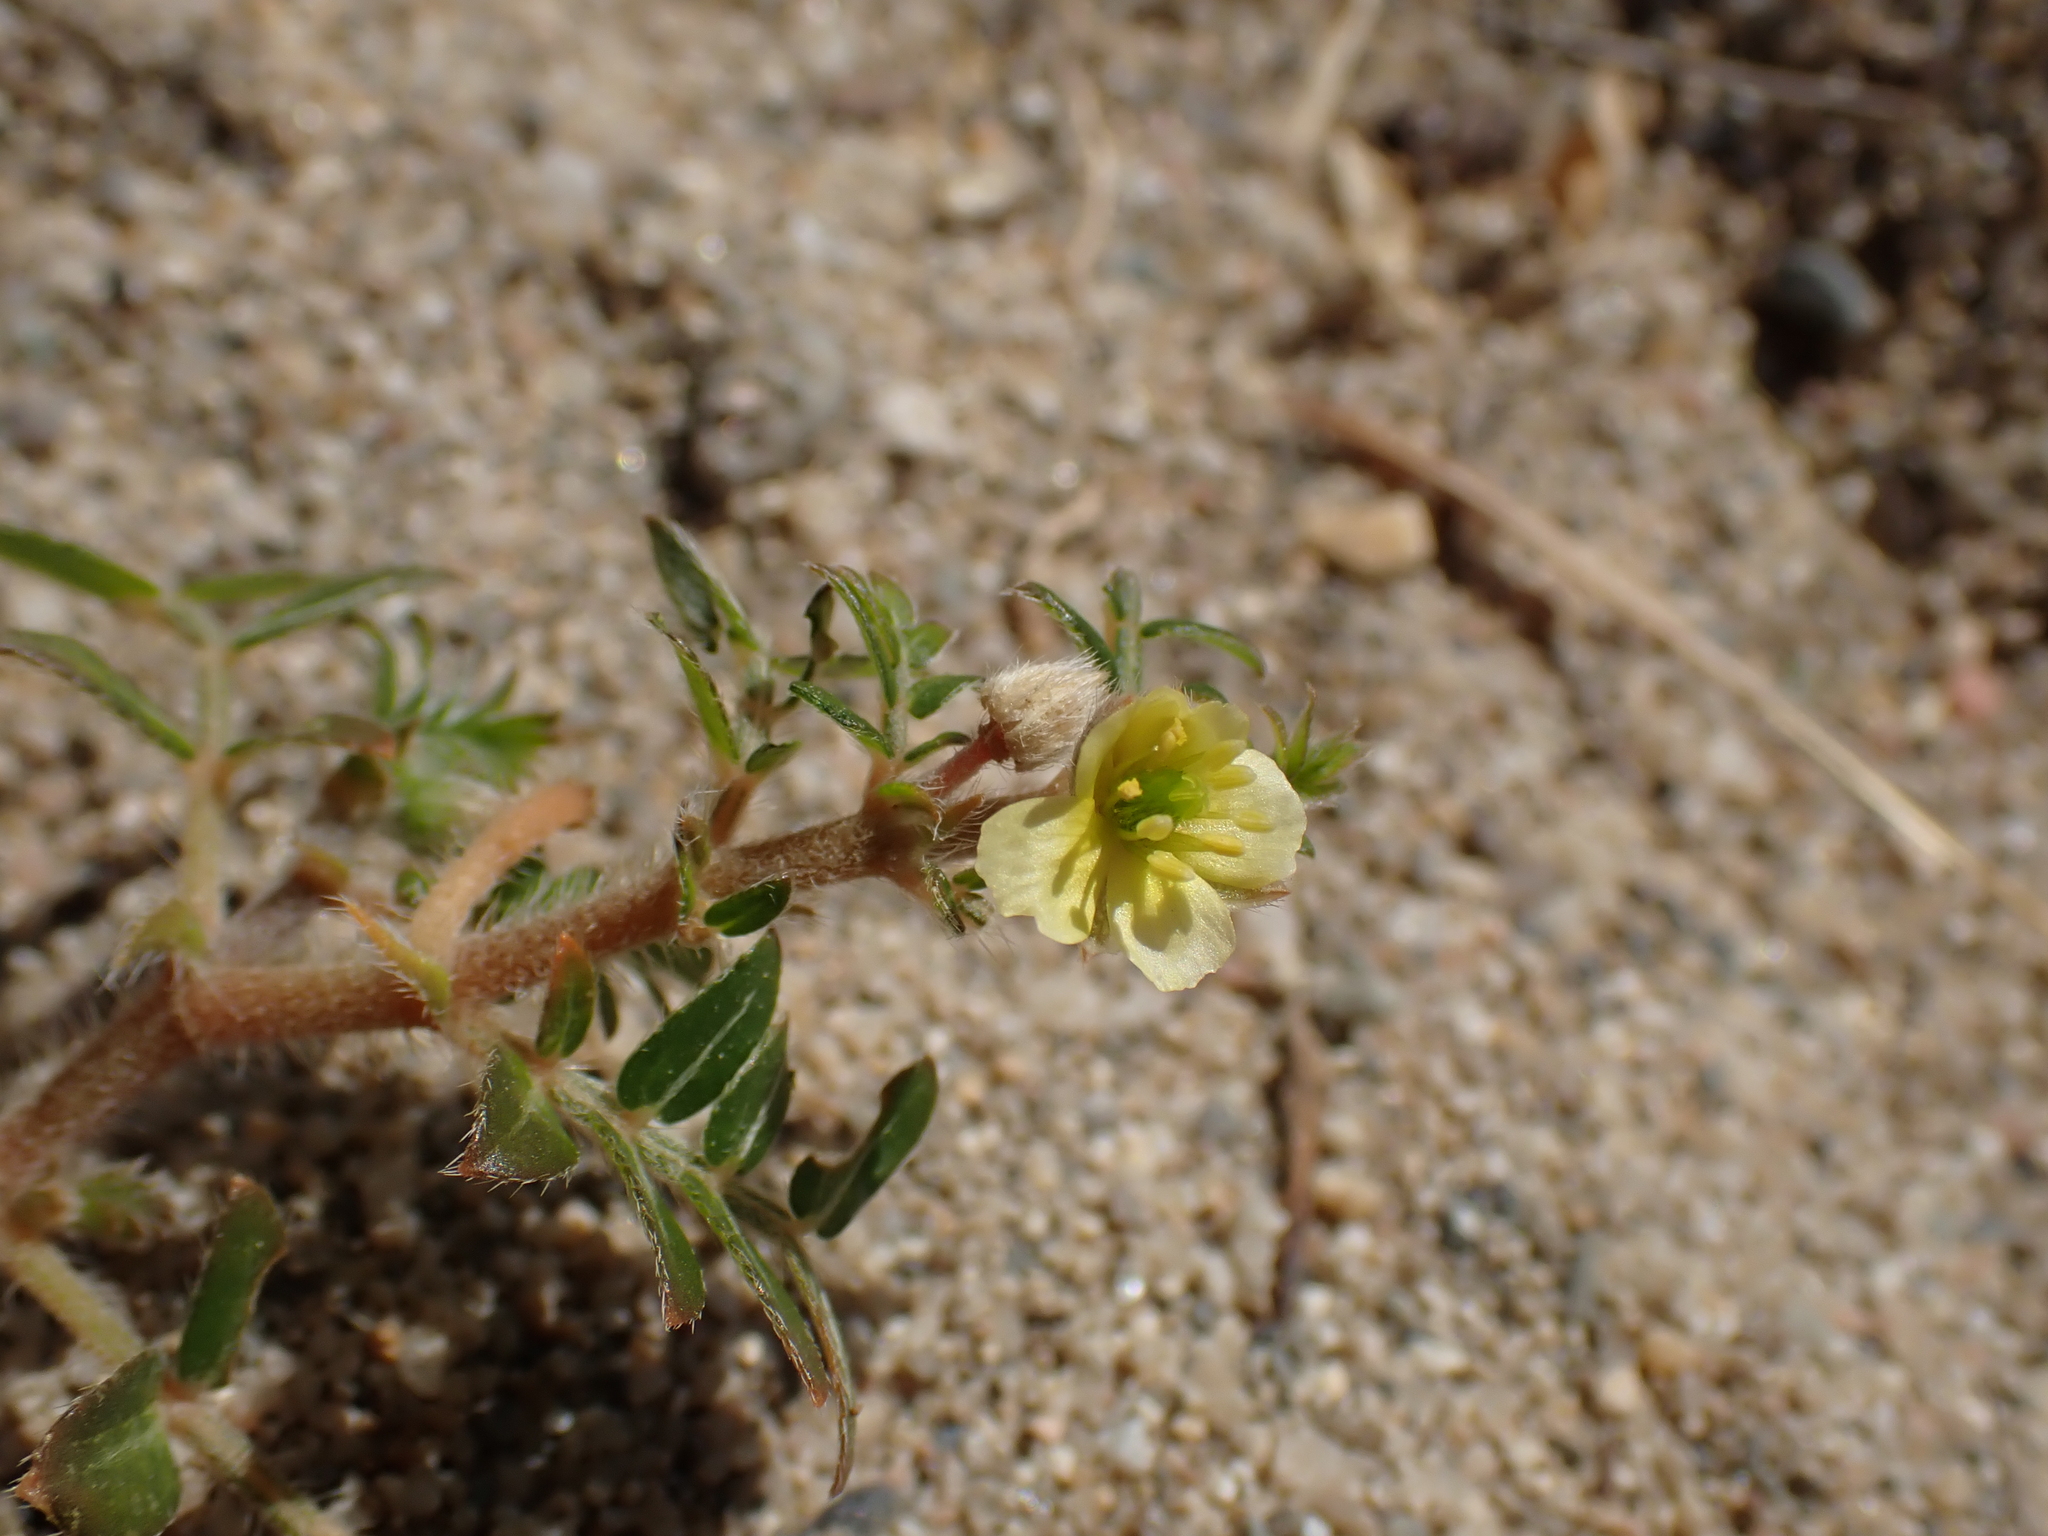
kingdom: Plantae
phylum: Tracheophyta
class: Magnoliopsida
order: Zygophyllales
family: Zygophyllaceae
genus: Tribulus
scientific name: Tribulus terrestris
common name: Puncturevine
